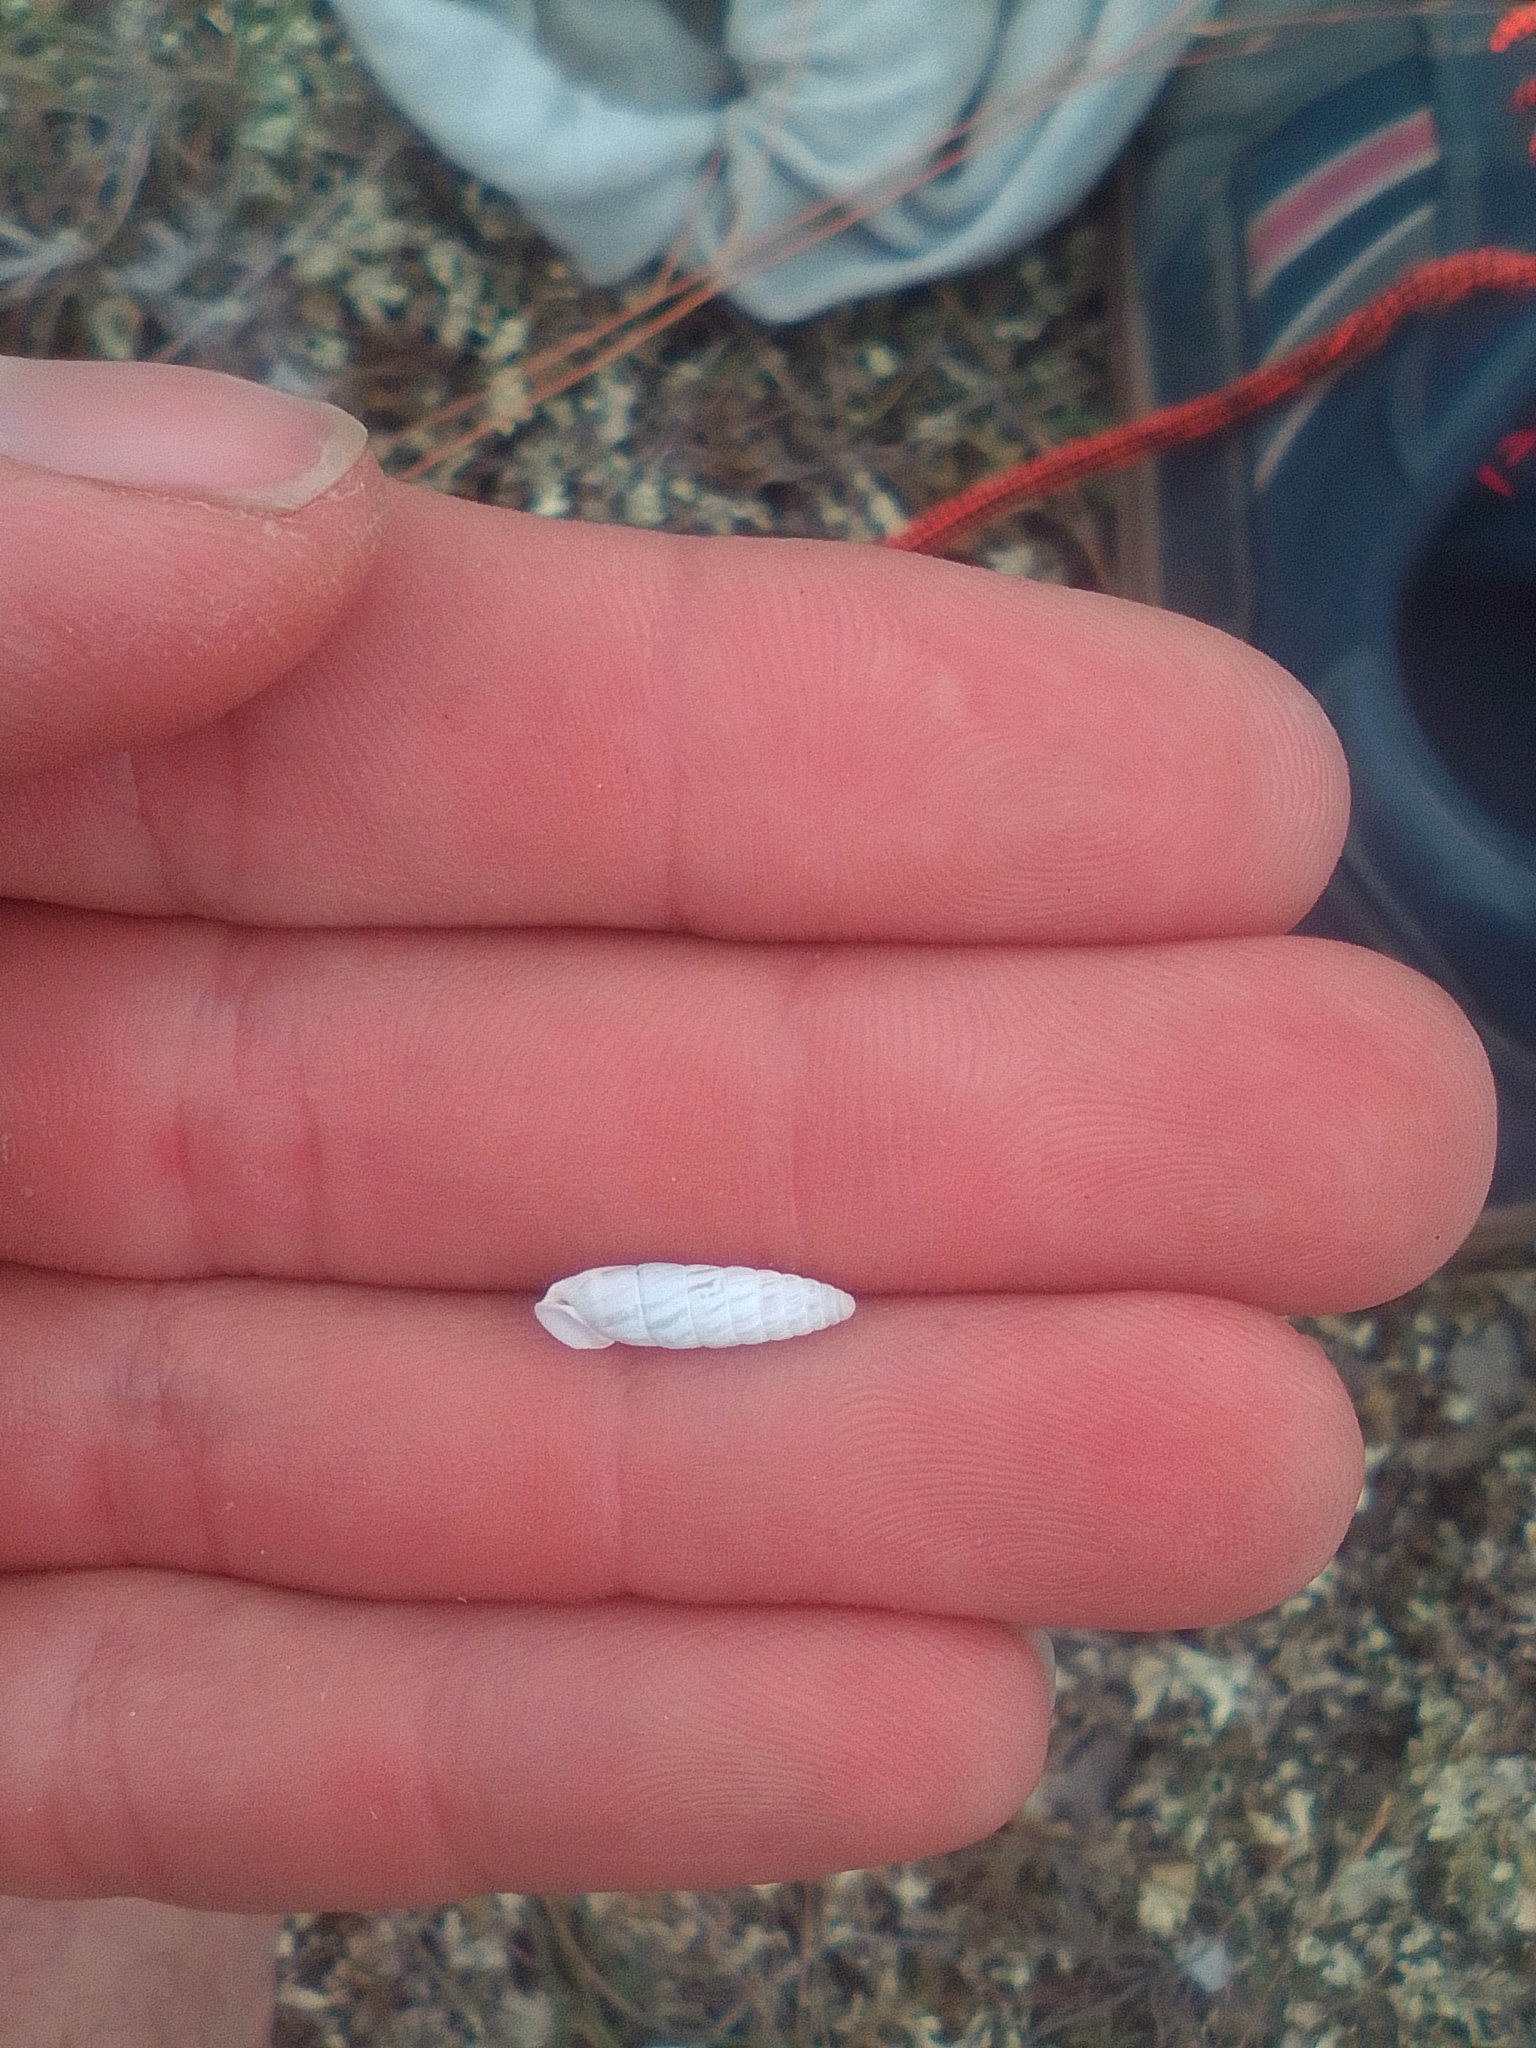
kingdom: Animalia
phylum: Mollusca
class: Gastropoda
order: Stylommatophora
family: Enidae
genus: Brephulopsis
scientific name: Brephulopsis bidens
